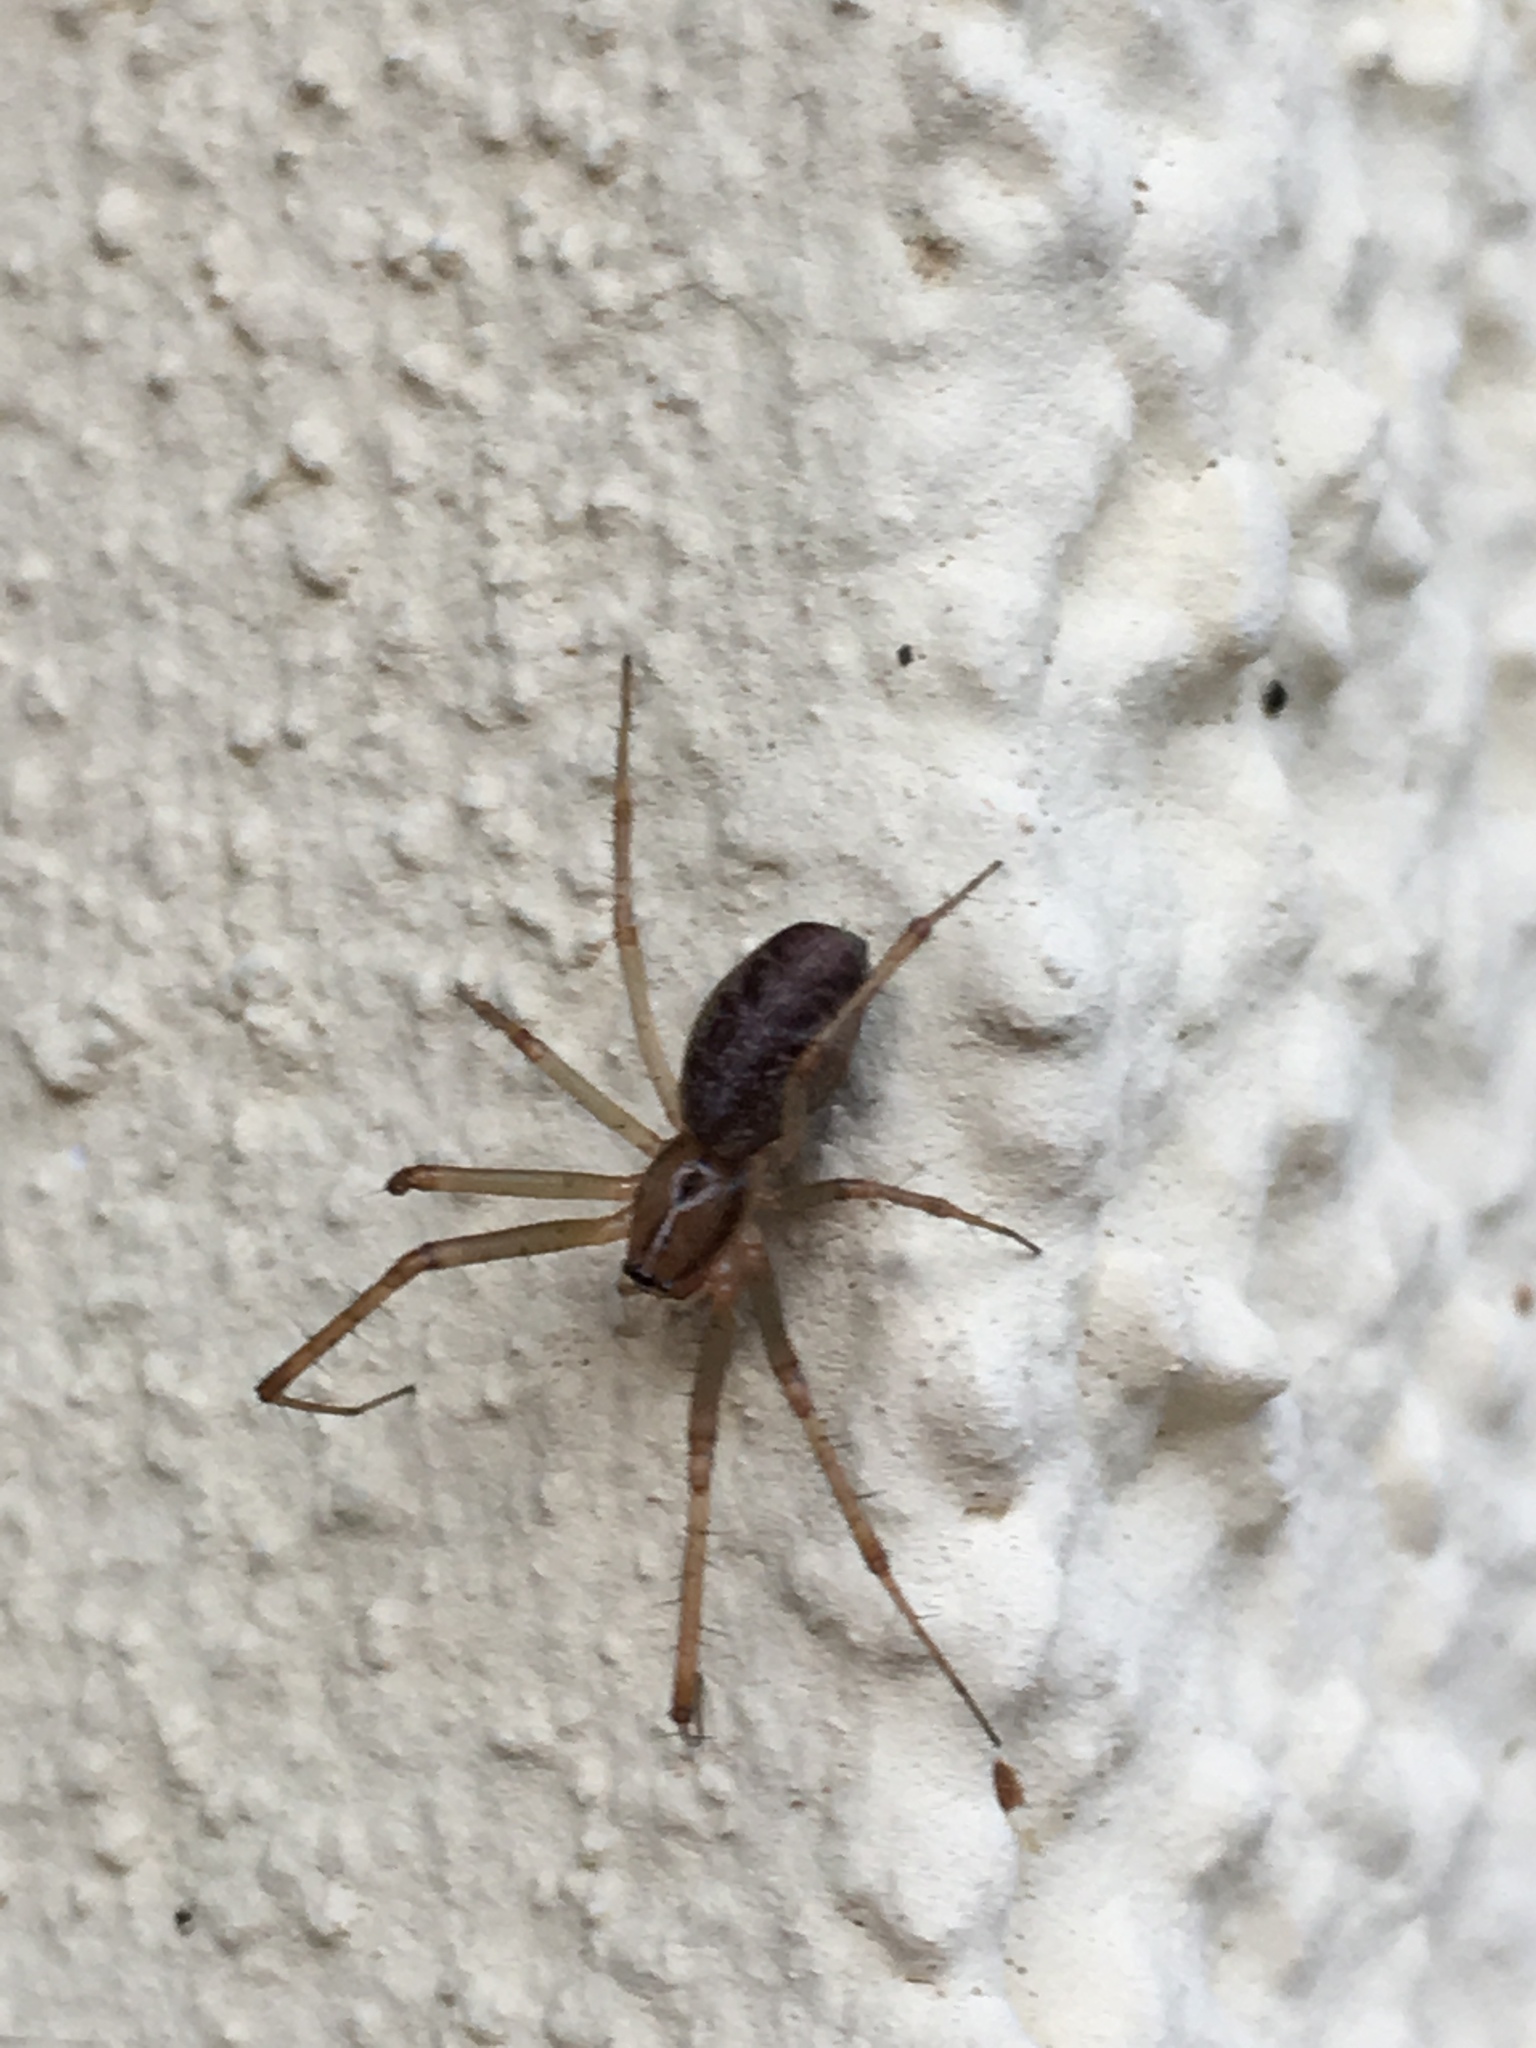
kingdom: Animalia
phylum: Arthropoda
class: Arachnida
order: Araneae
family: Linyphiidae
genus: Linyphia
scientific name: Linyphia triangularis
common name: Money spider
